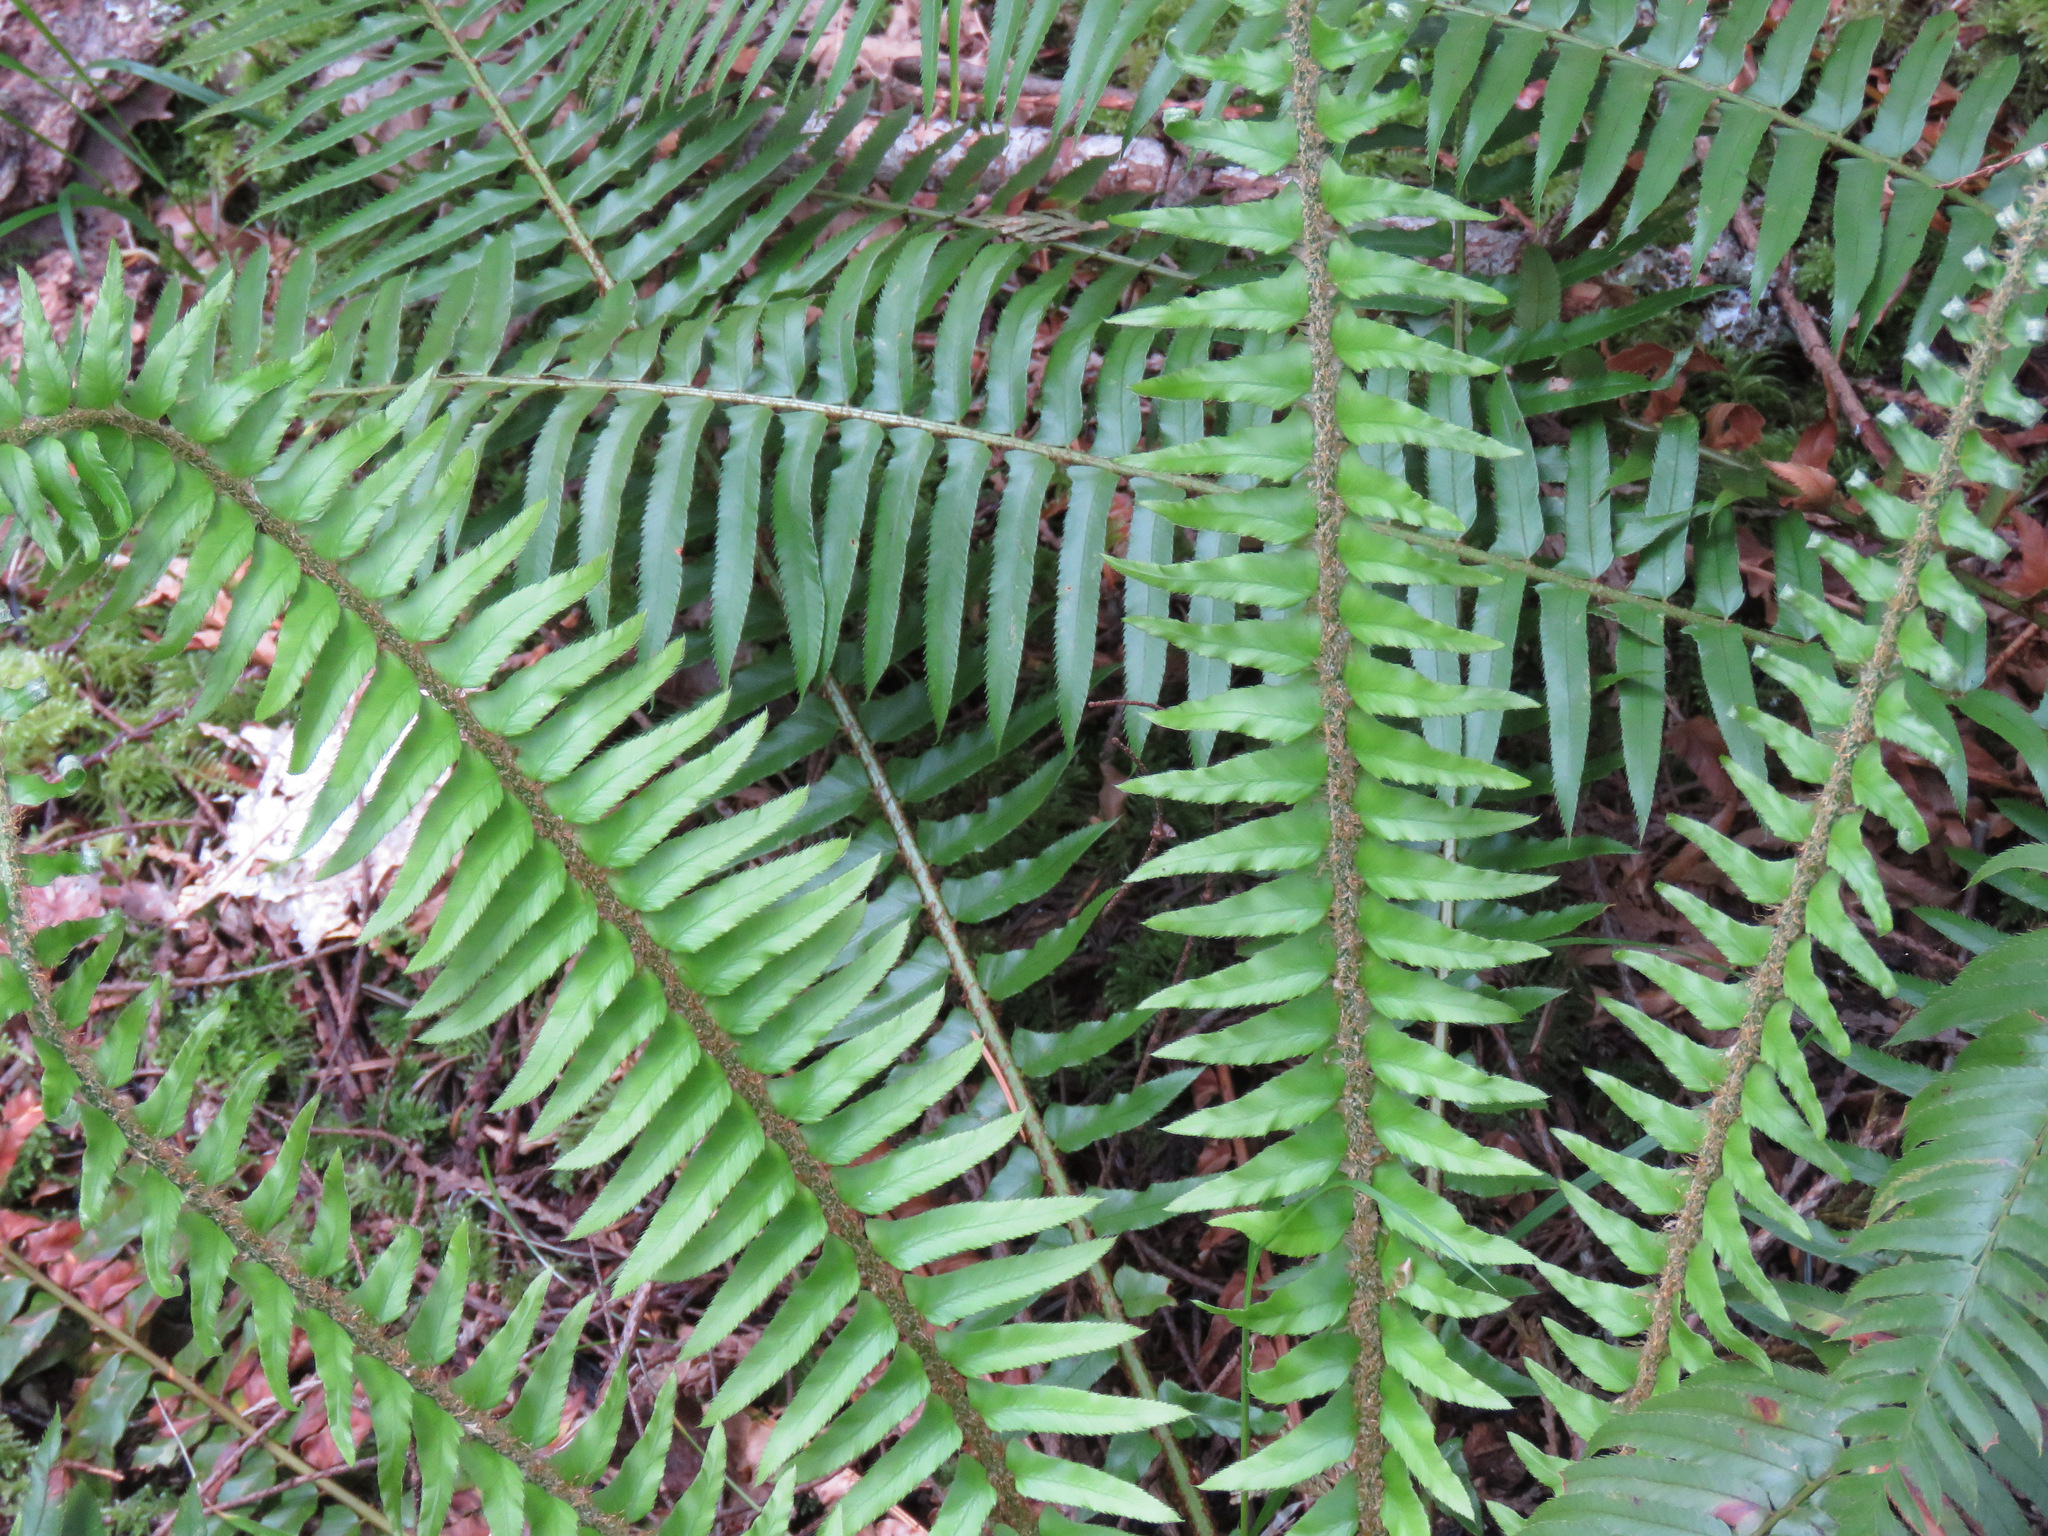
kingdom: Plantae
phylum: Tracheophyta
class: Polypodiopsida
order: Polypodiales
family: Dryopteridaceae
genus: Polystichum
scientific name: Polystichum munitum
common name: Western sword-fern
